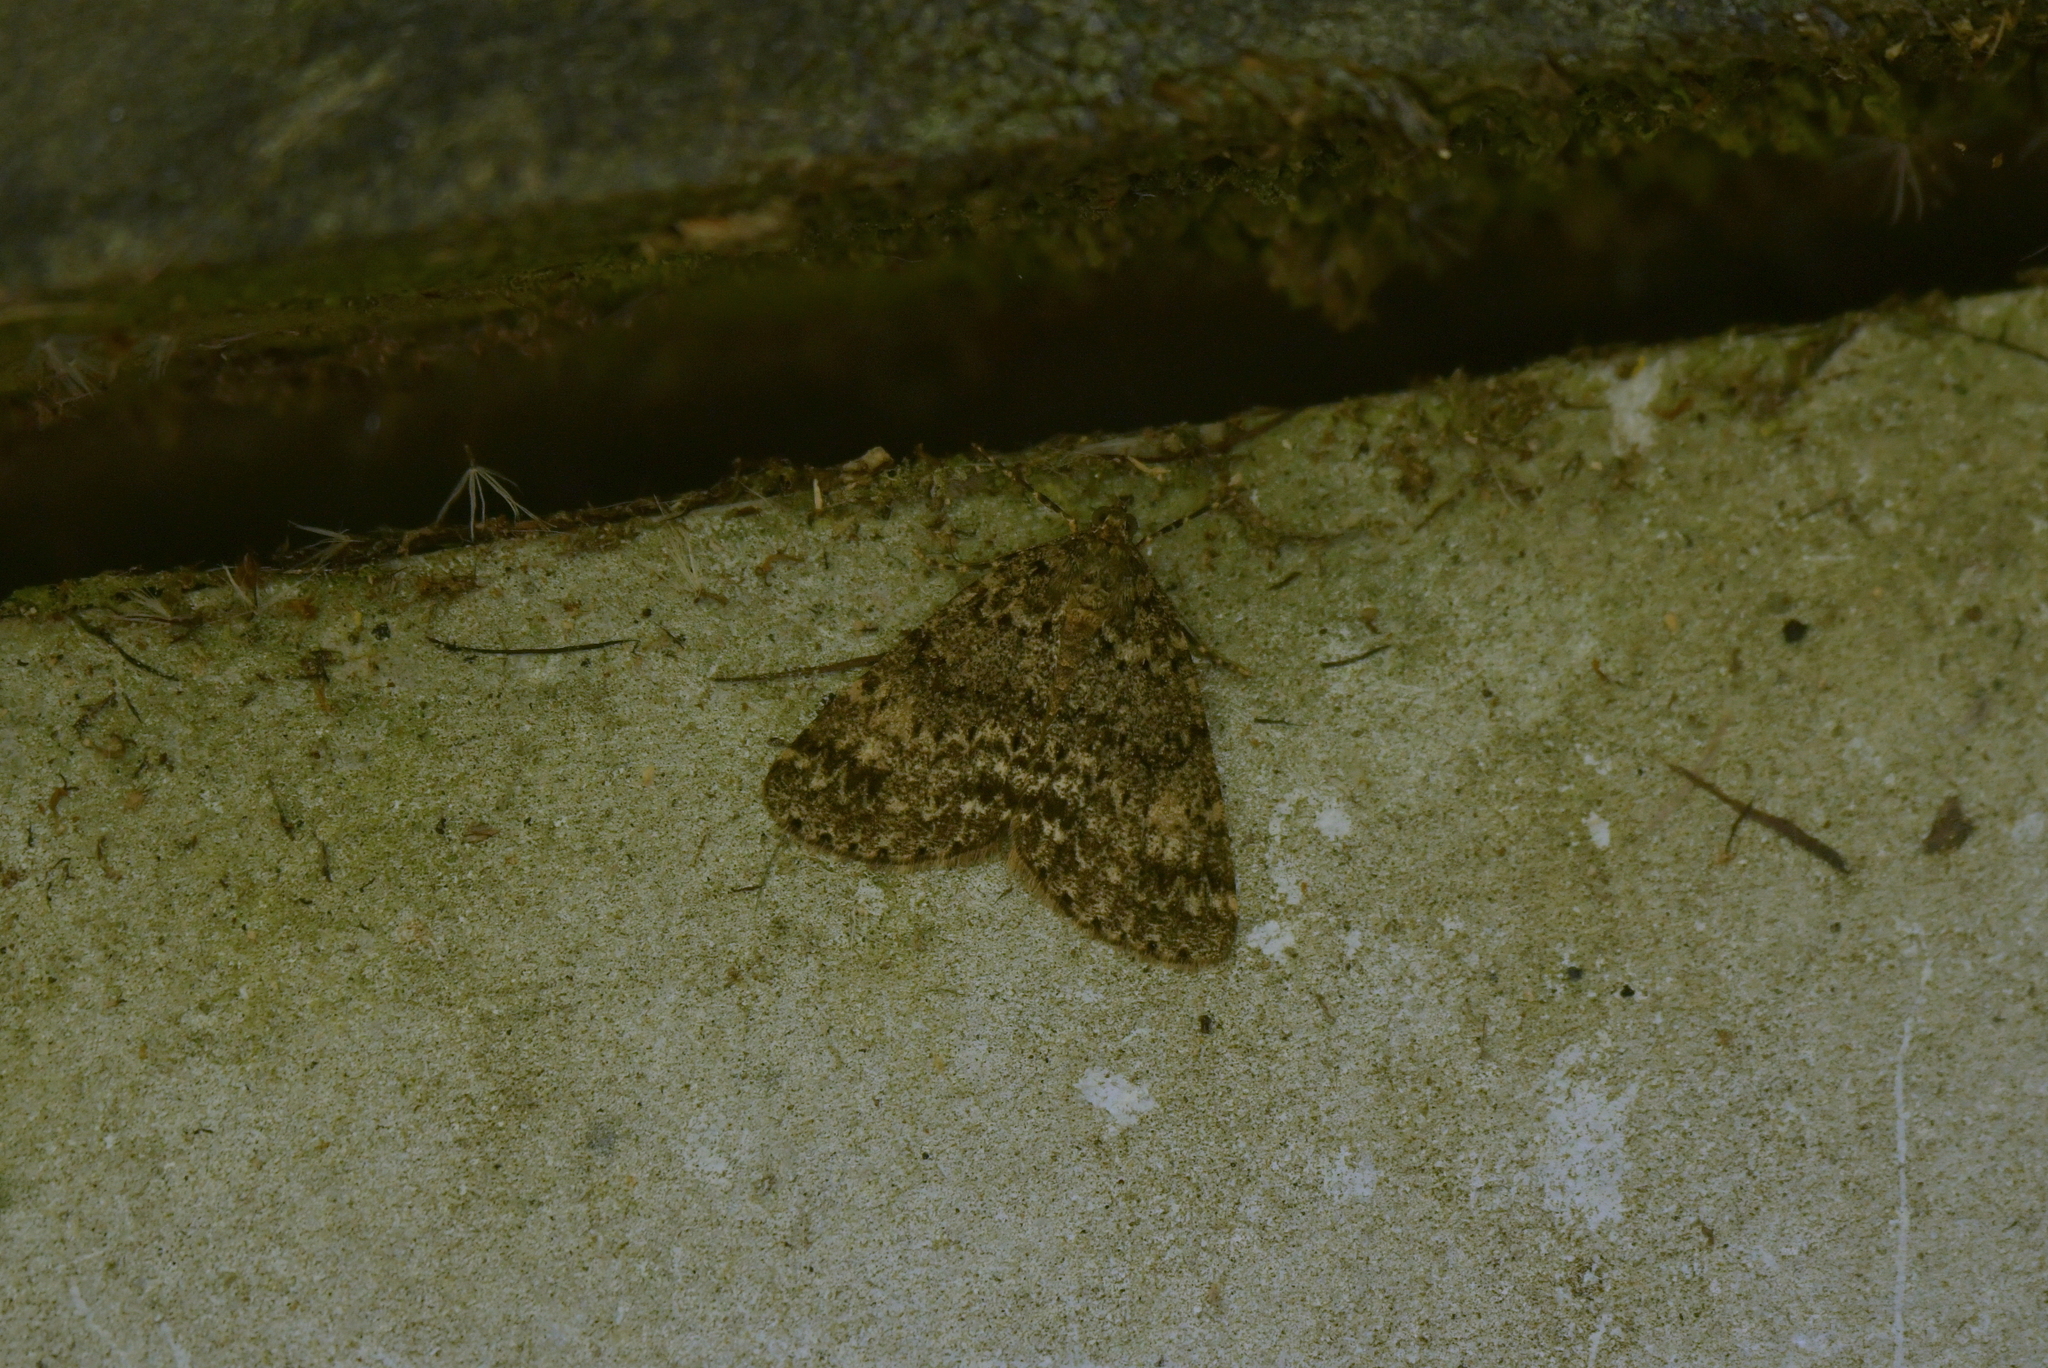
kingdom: Animalia
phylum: Arthropoda
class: Insecta
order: Lepidoptera
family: Geometridae
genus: Pseudocoremia
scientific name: Pseudocoremia indistincta
